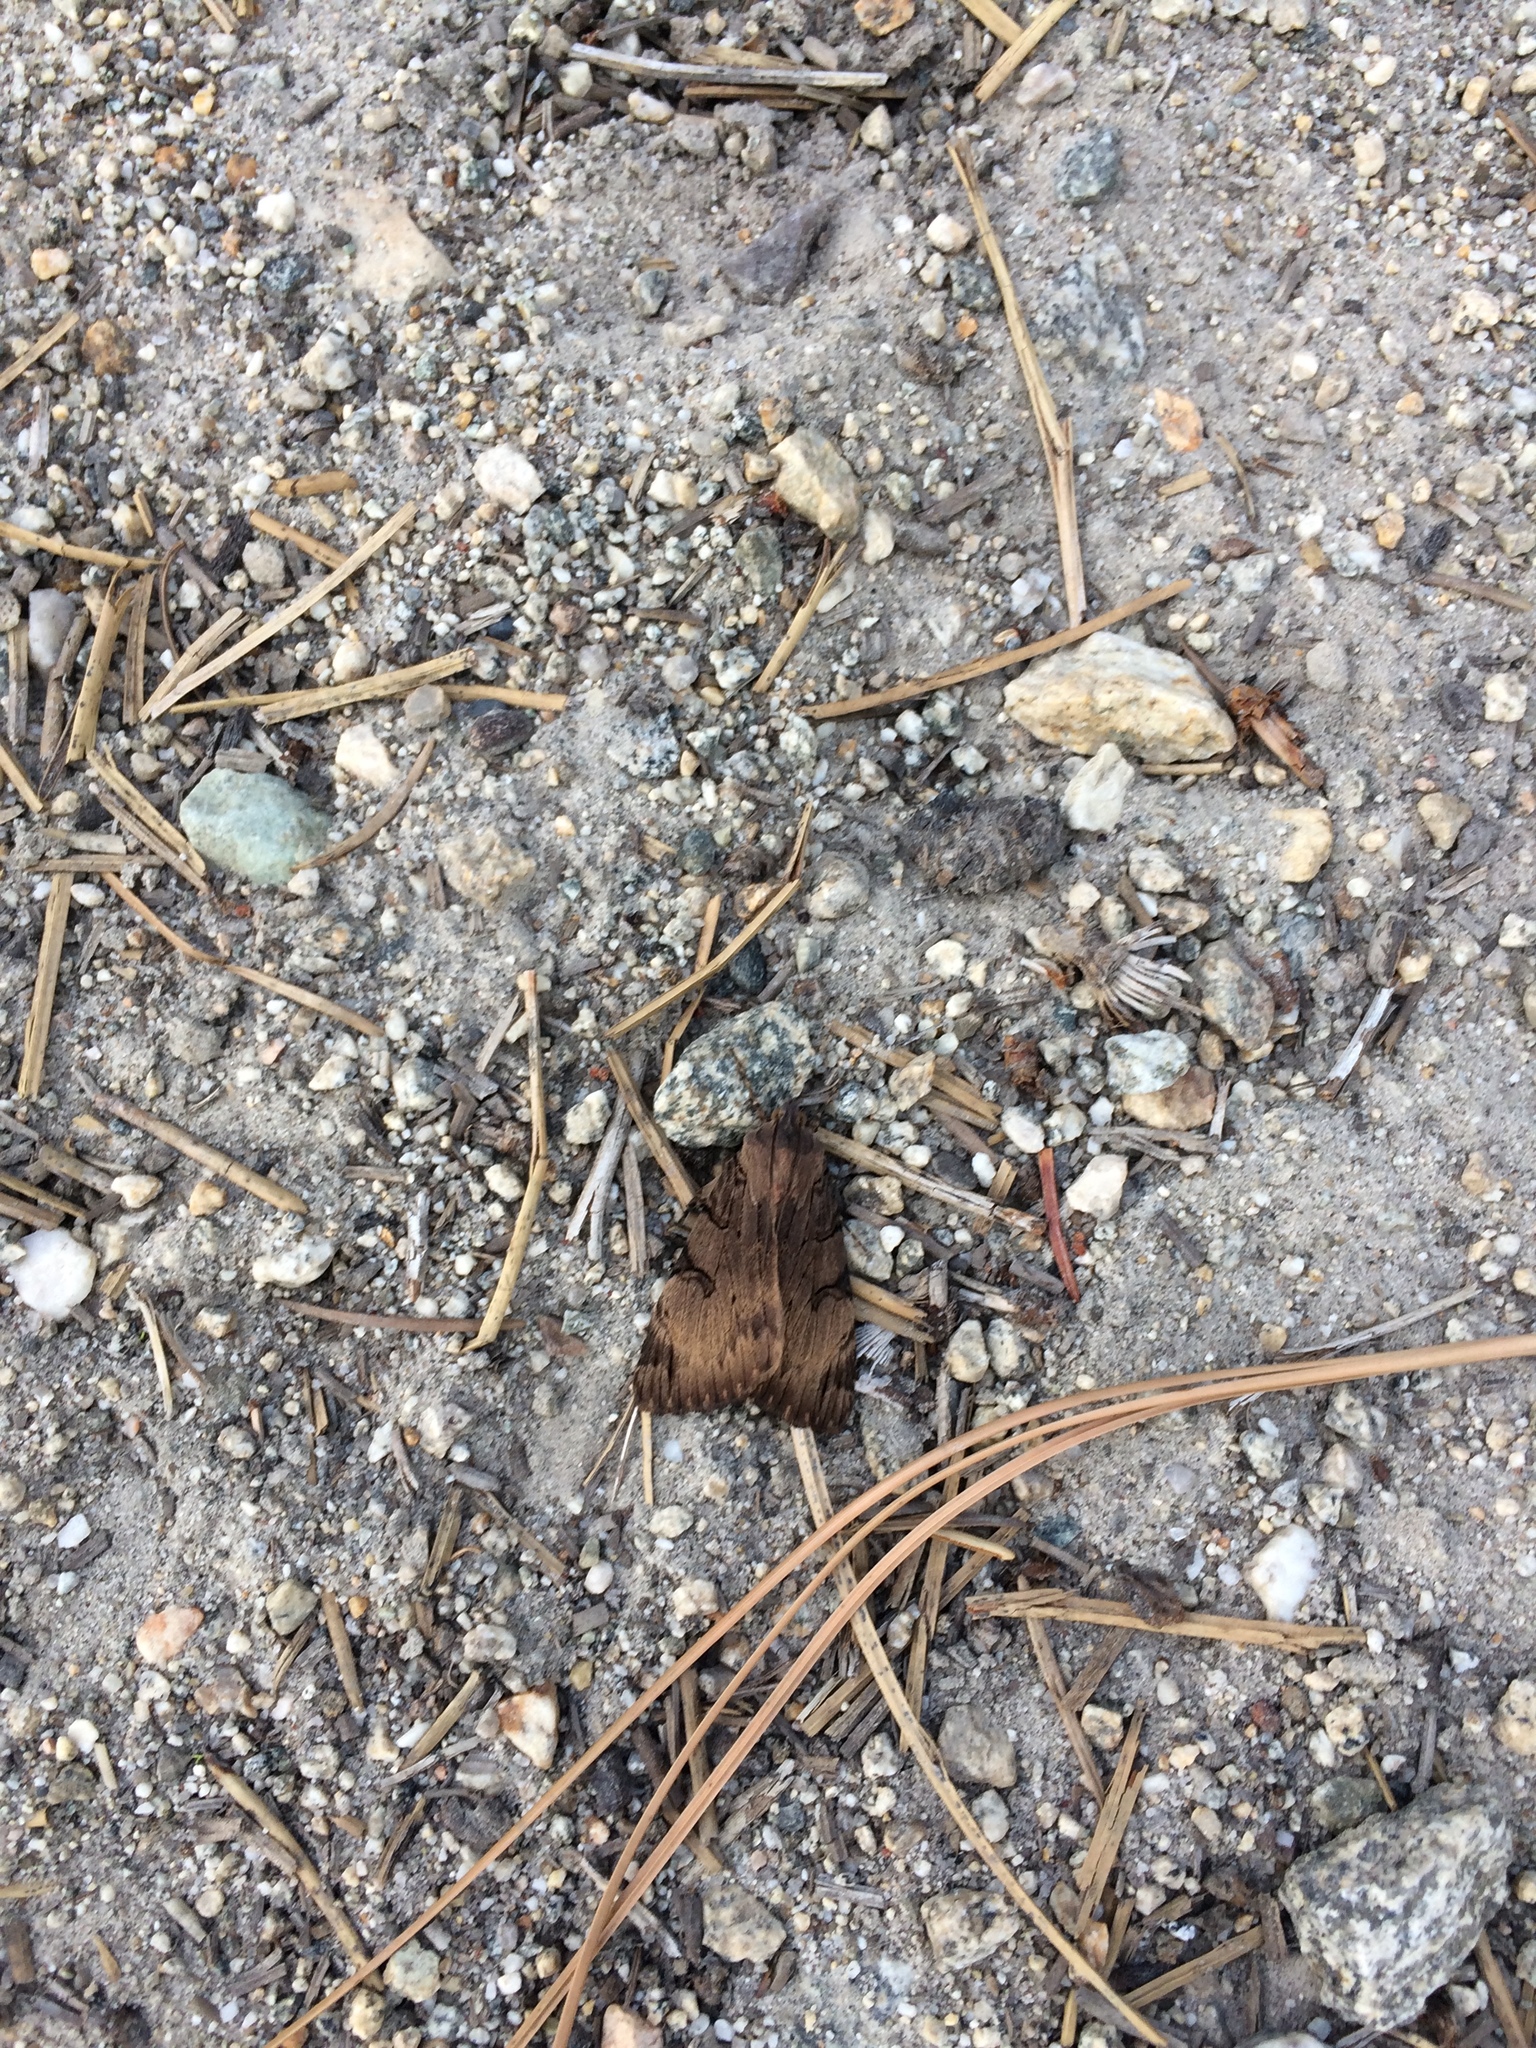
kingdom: Animalia
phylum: Arthropoda
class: Insecta
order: Lepidoptera
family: Erebidae
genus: Drasteria
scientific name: Drasteria ochracea
